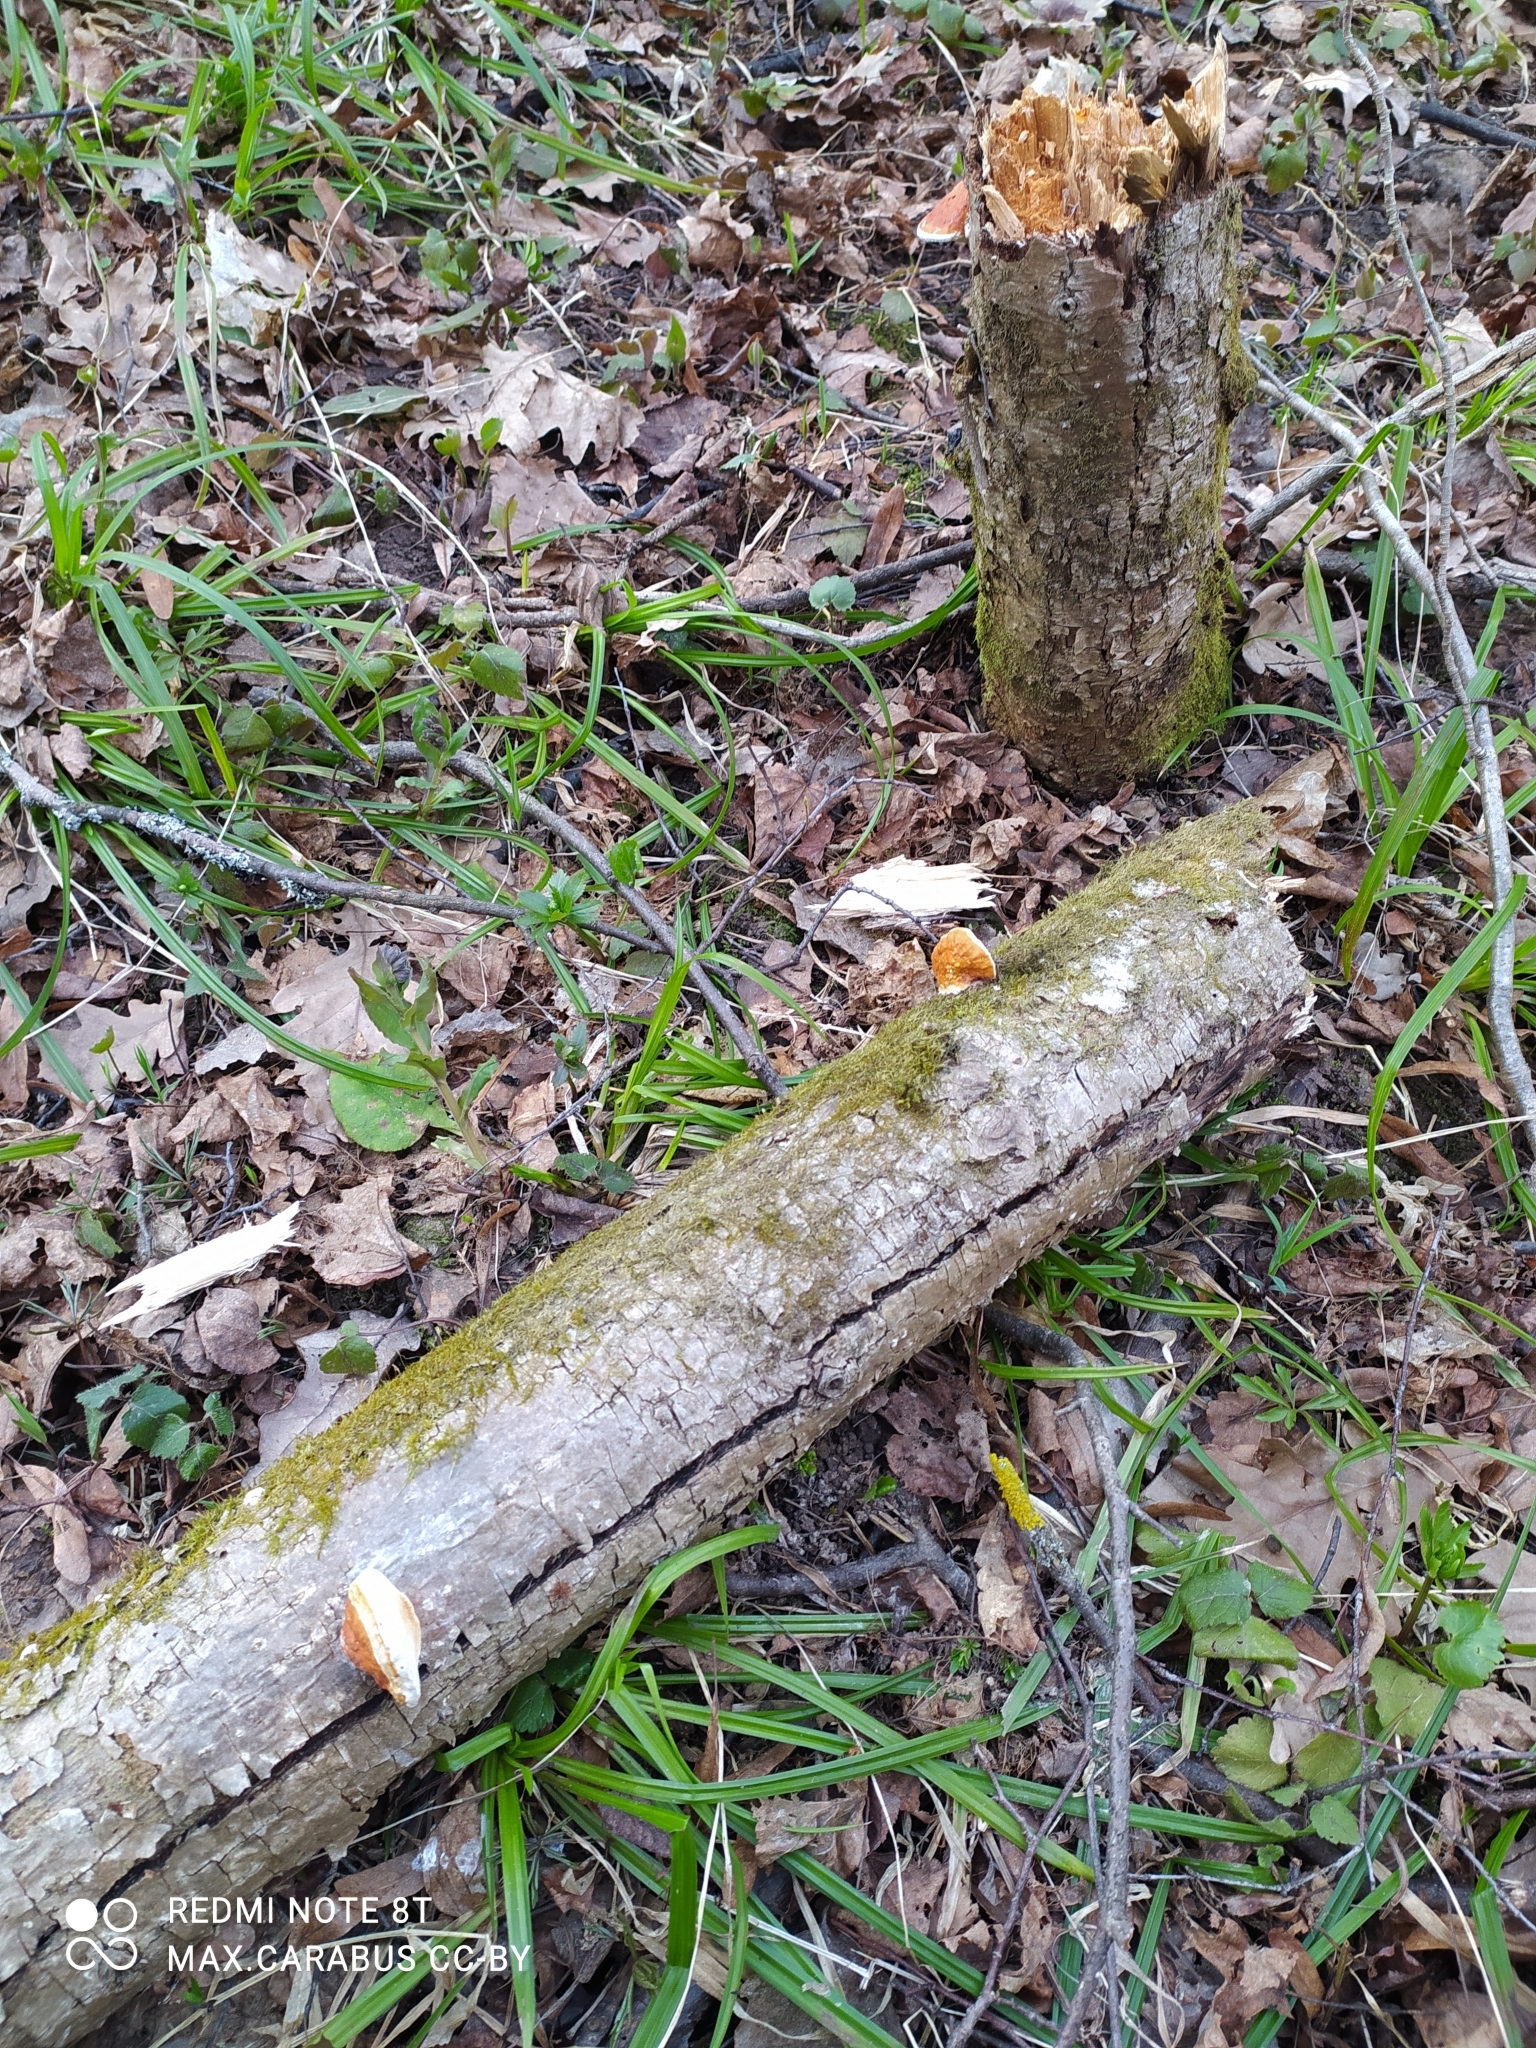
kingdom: Fungi
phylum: Basidiomycota
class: Agaricomycetes
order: Polyporales
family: Fomitopsidaceae
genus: Fomitopsis
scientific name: Fomitopsis pinicola
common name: Red-belted bracket
